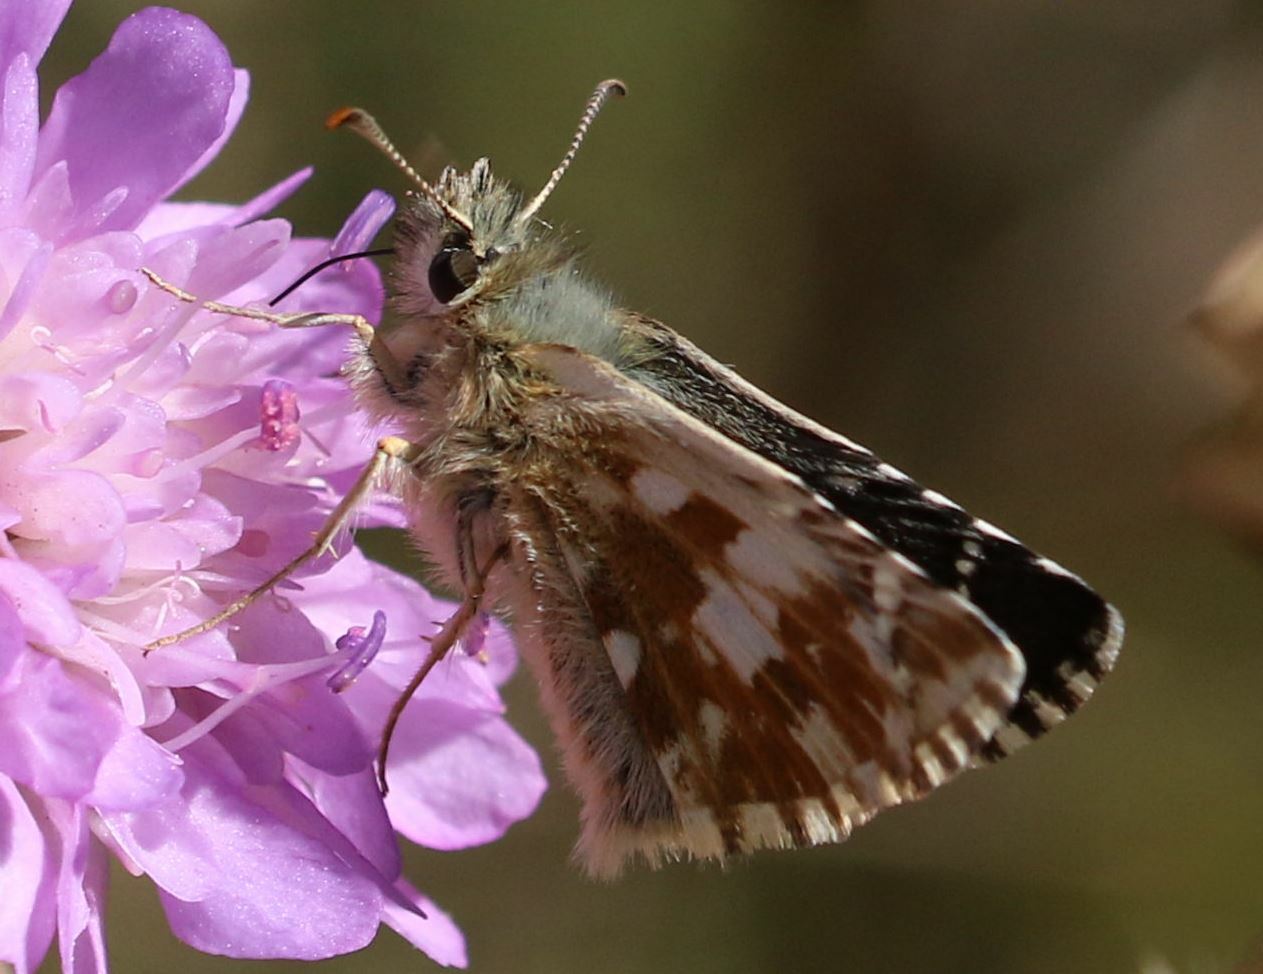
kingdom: Animalia
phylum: Arthropoda
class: Insecta
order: Lepidoptera
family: Hesperiidae
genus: Pyrgus
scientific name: Pyrgus carlinae
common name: Carline skipper
